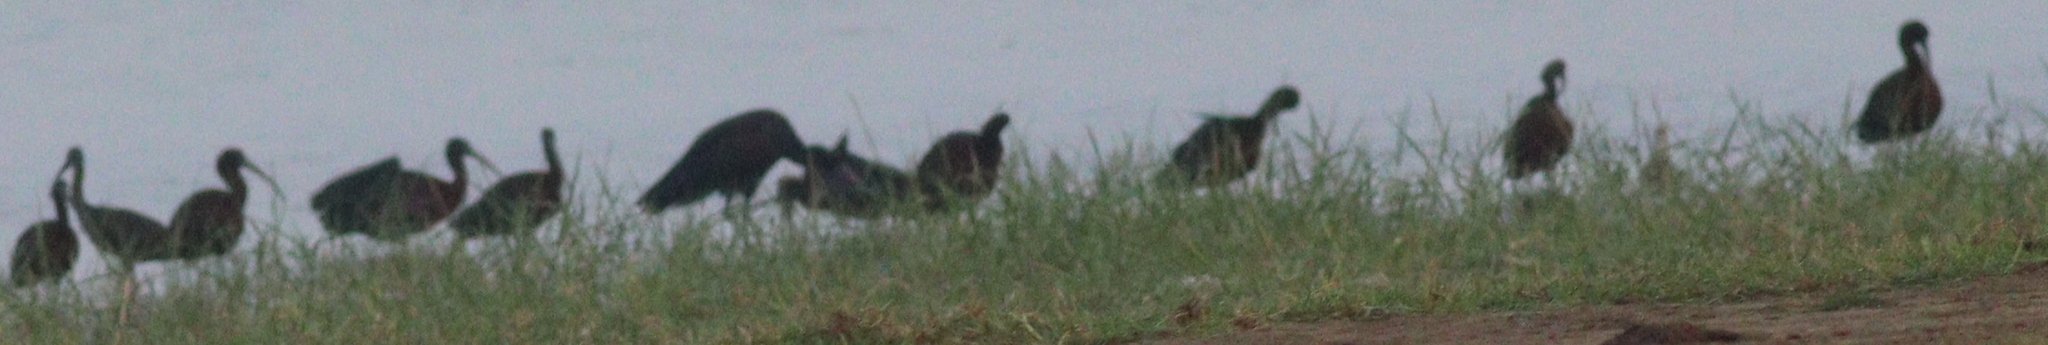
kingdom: Animalia
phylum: Chordata
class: Aves
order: Pelecaniformes
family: Threskiornithidae
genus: Plegadis
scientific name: Plegadis falcinellus
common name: Glossy ibis
